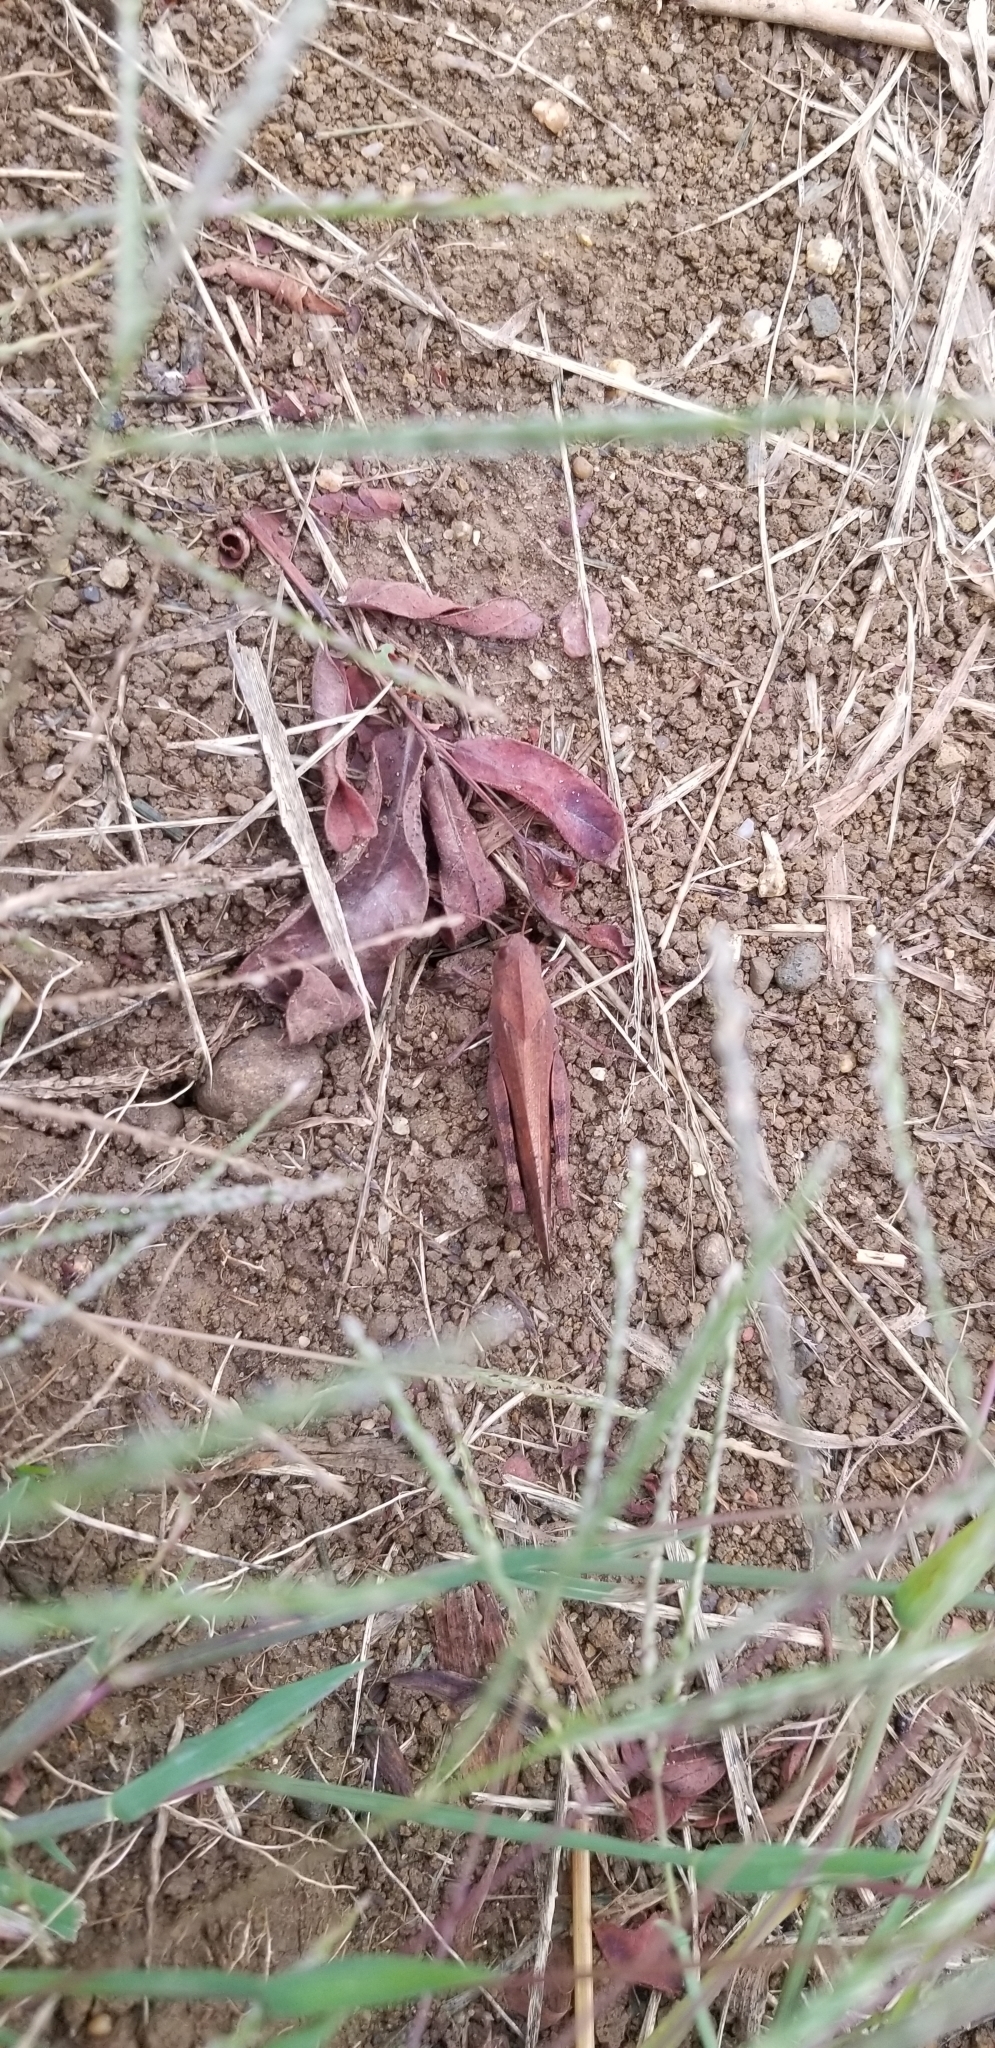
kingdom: Animalia
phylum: Arthropoda
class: Insecta
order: Orthoptera
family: Acrididae
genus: Arphia
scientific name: Arphia xanthoptera
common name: Autumn yellow-winged grasshopper
